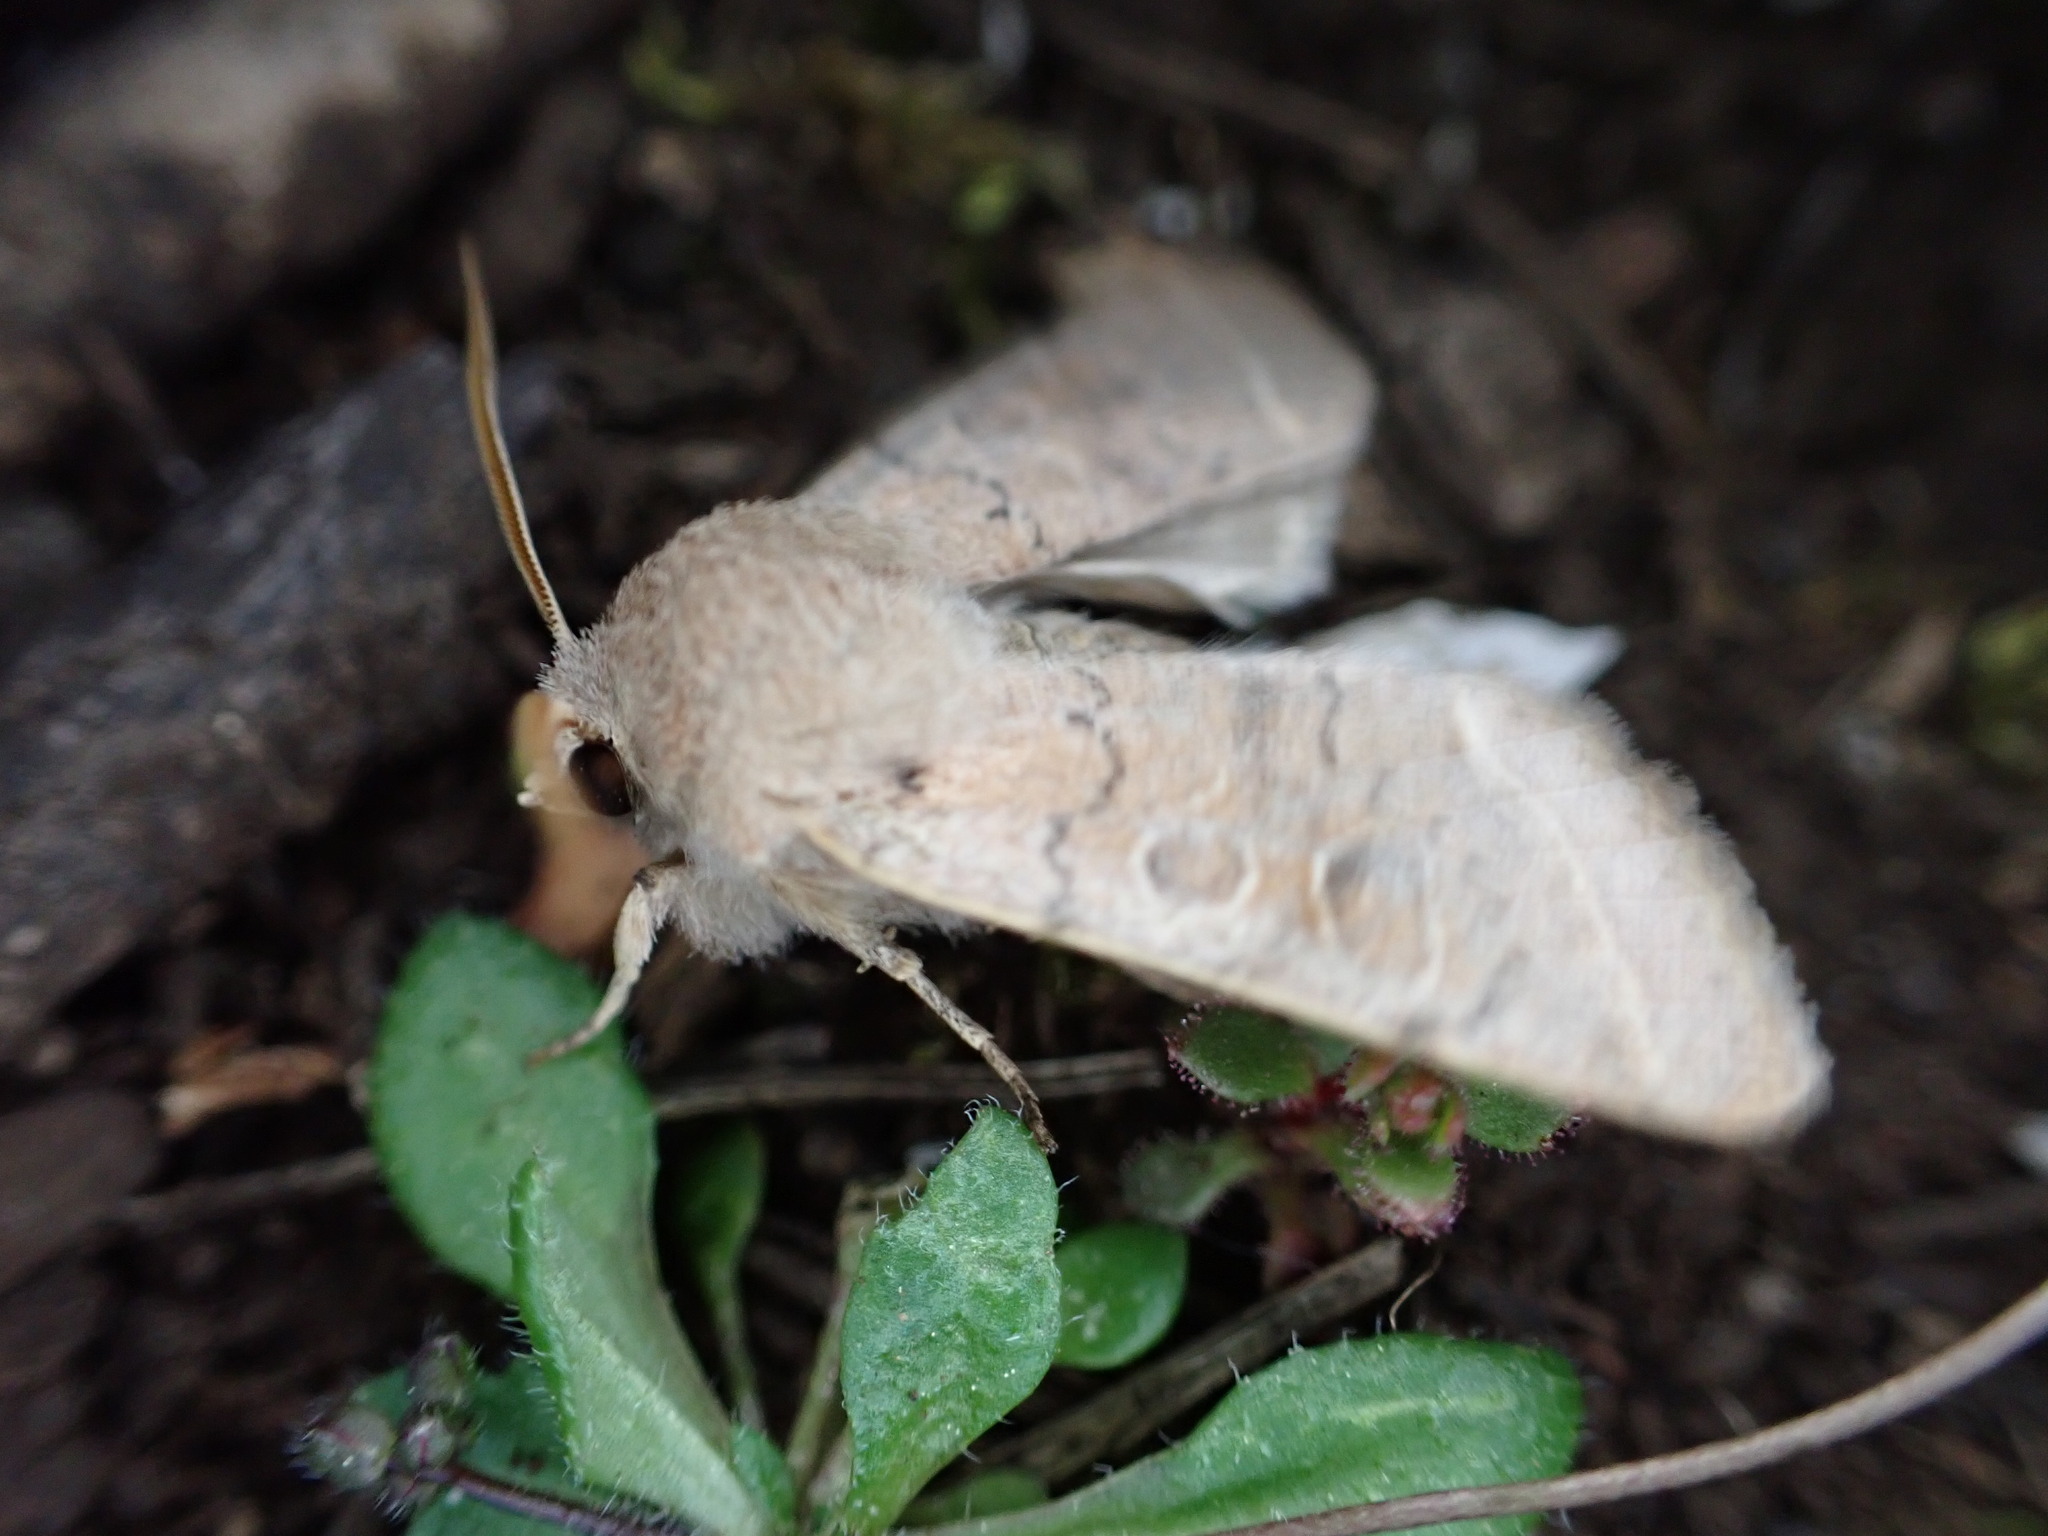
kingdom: Animalia
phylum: Arthropoda
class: Insecta
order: Lepidoptera
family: Noctuidae
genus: Orthosia
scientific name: Orthosia cerasi
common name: Common quaker
